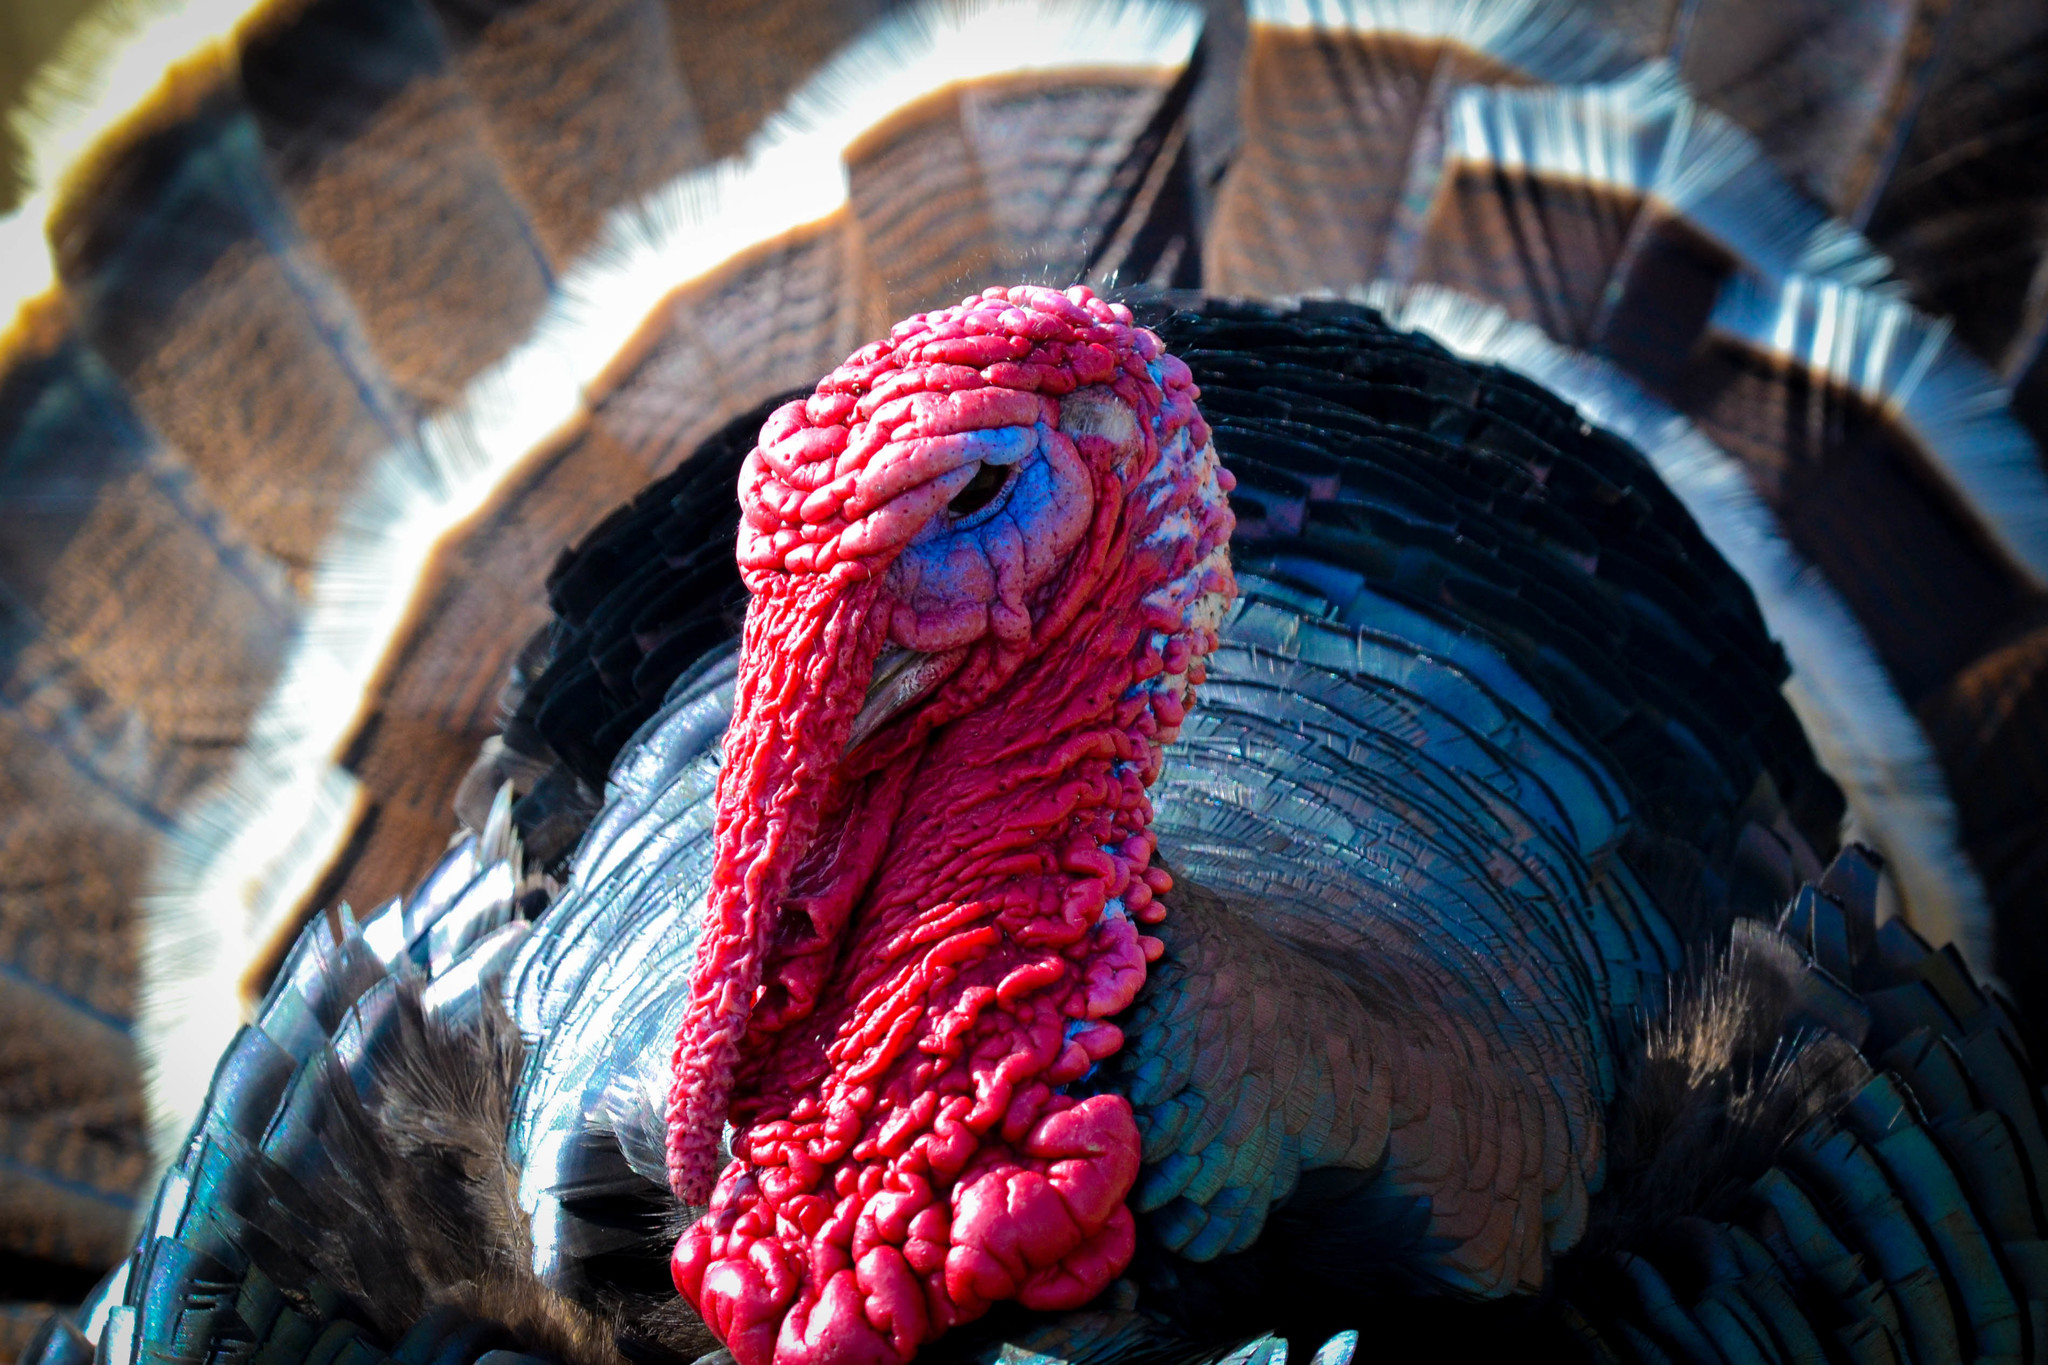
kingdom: Animalia
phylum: Chordata
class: Aves
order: Galliformes
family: Phasianidae
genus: Meleagris
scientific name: Meleagris gallopavo
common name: Wild turkey
